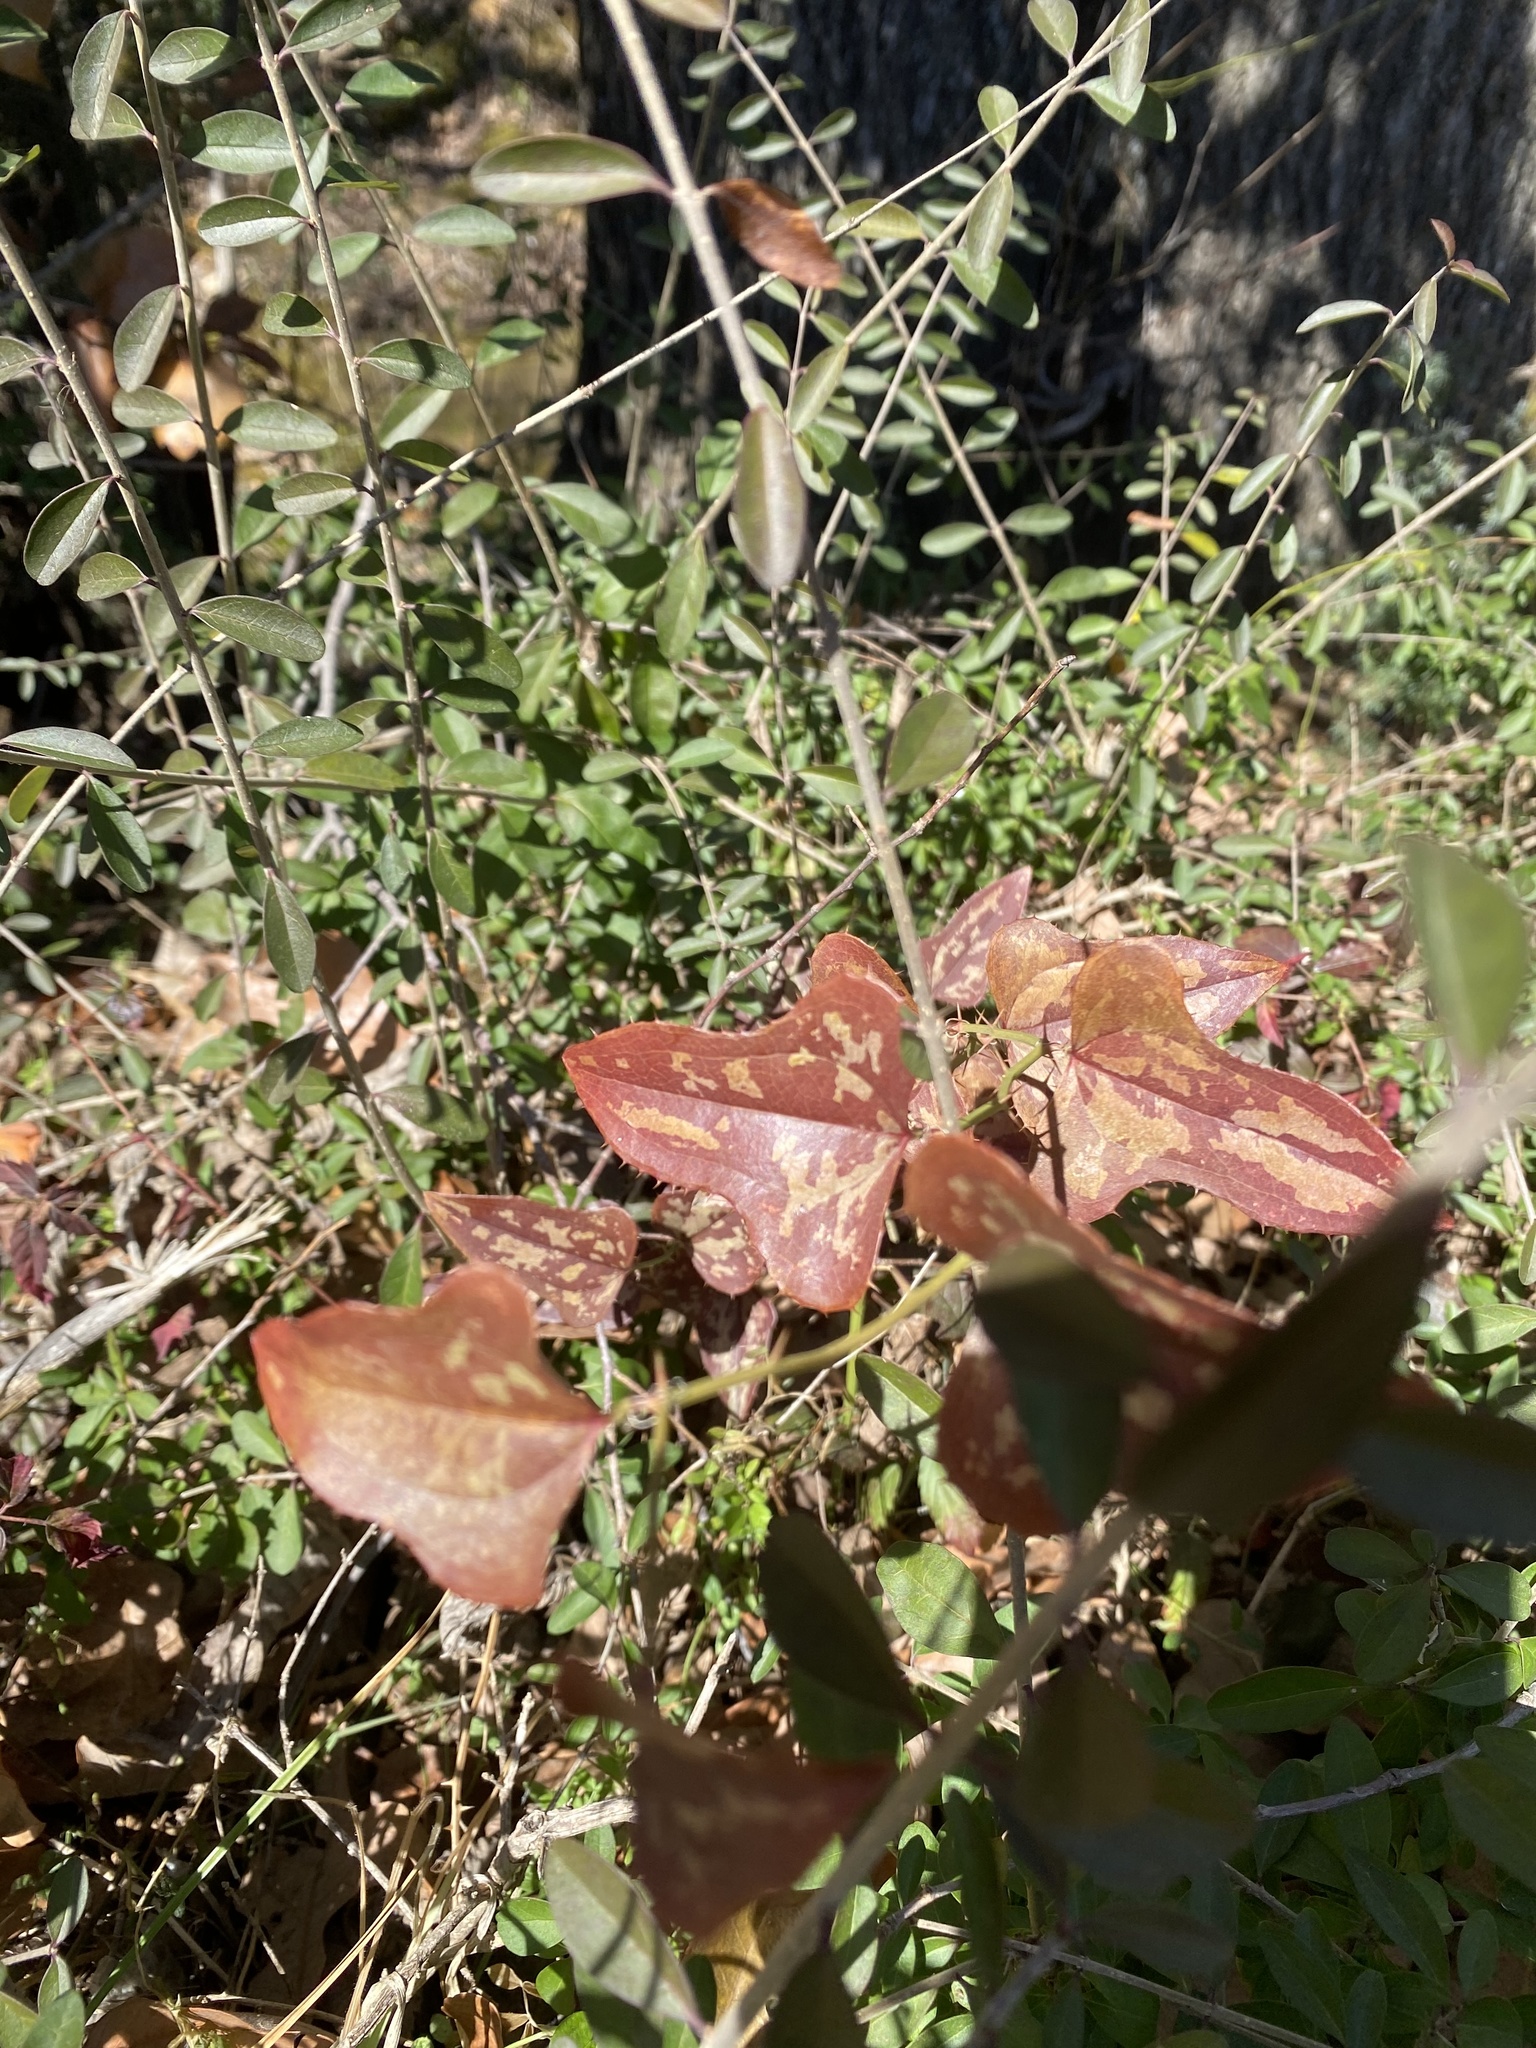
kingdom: Plantae
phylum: Tracheophyta
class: Liliopsida
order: Liliales
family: Smilacaceae
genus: Smilax
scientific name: Smilax bona-nox
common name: Catbrier
